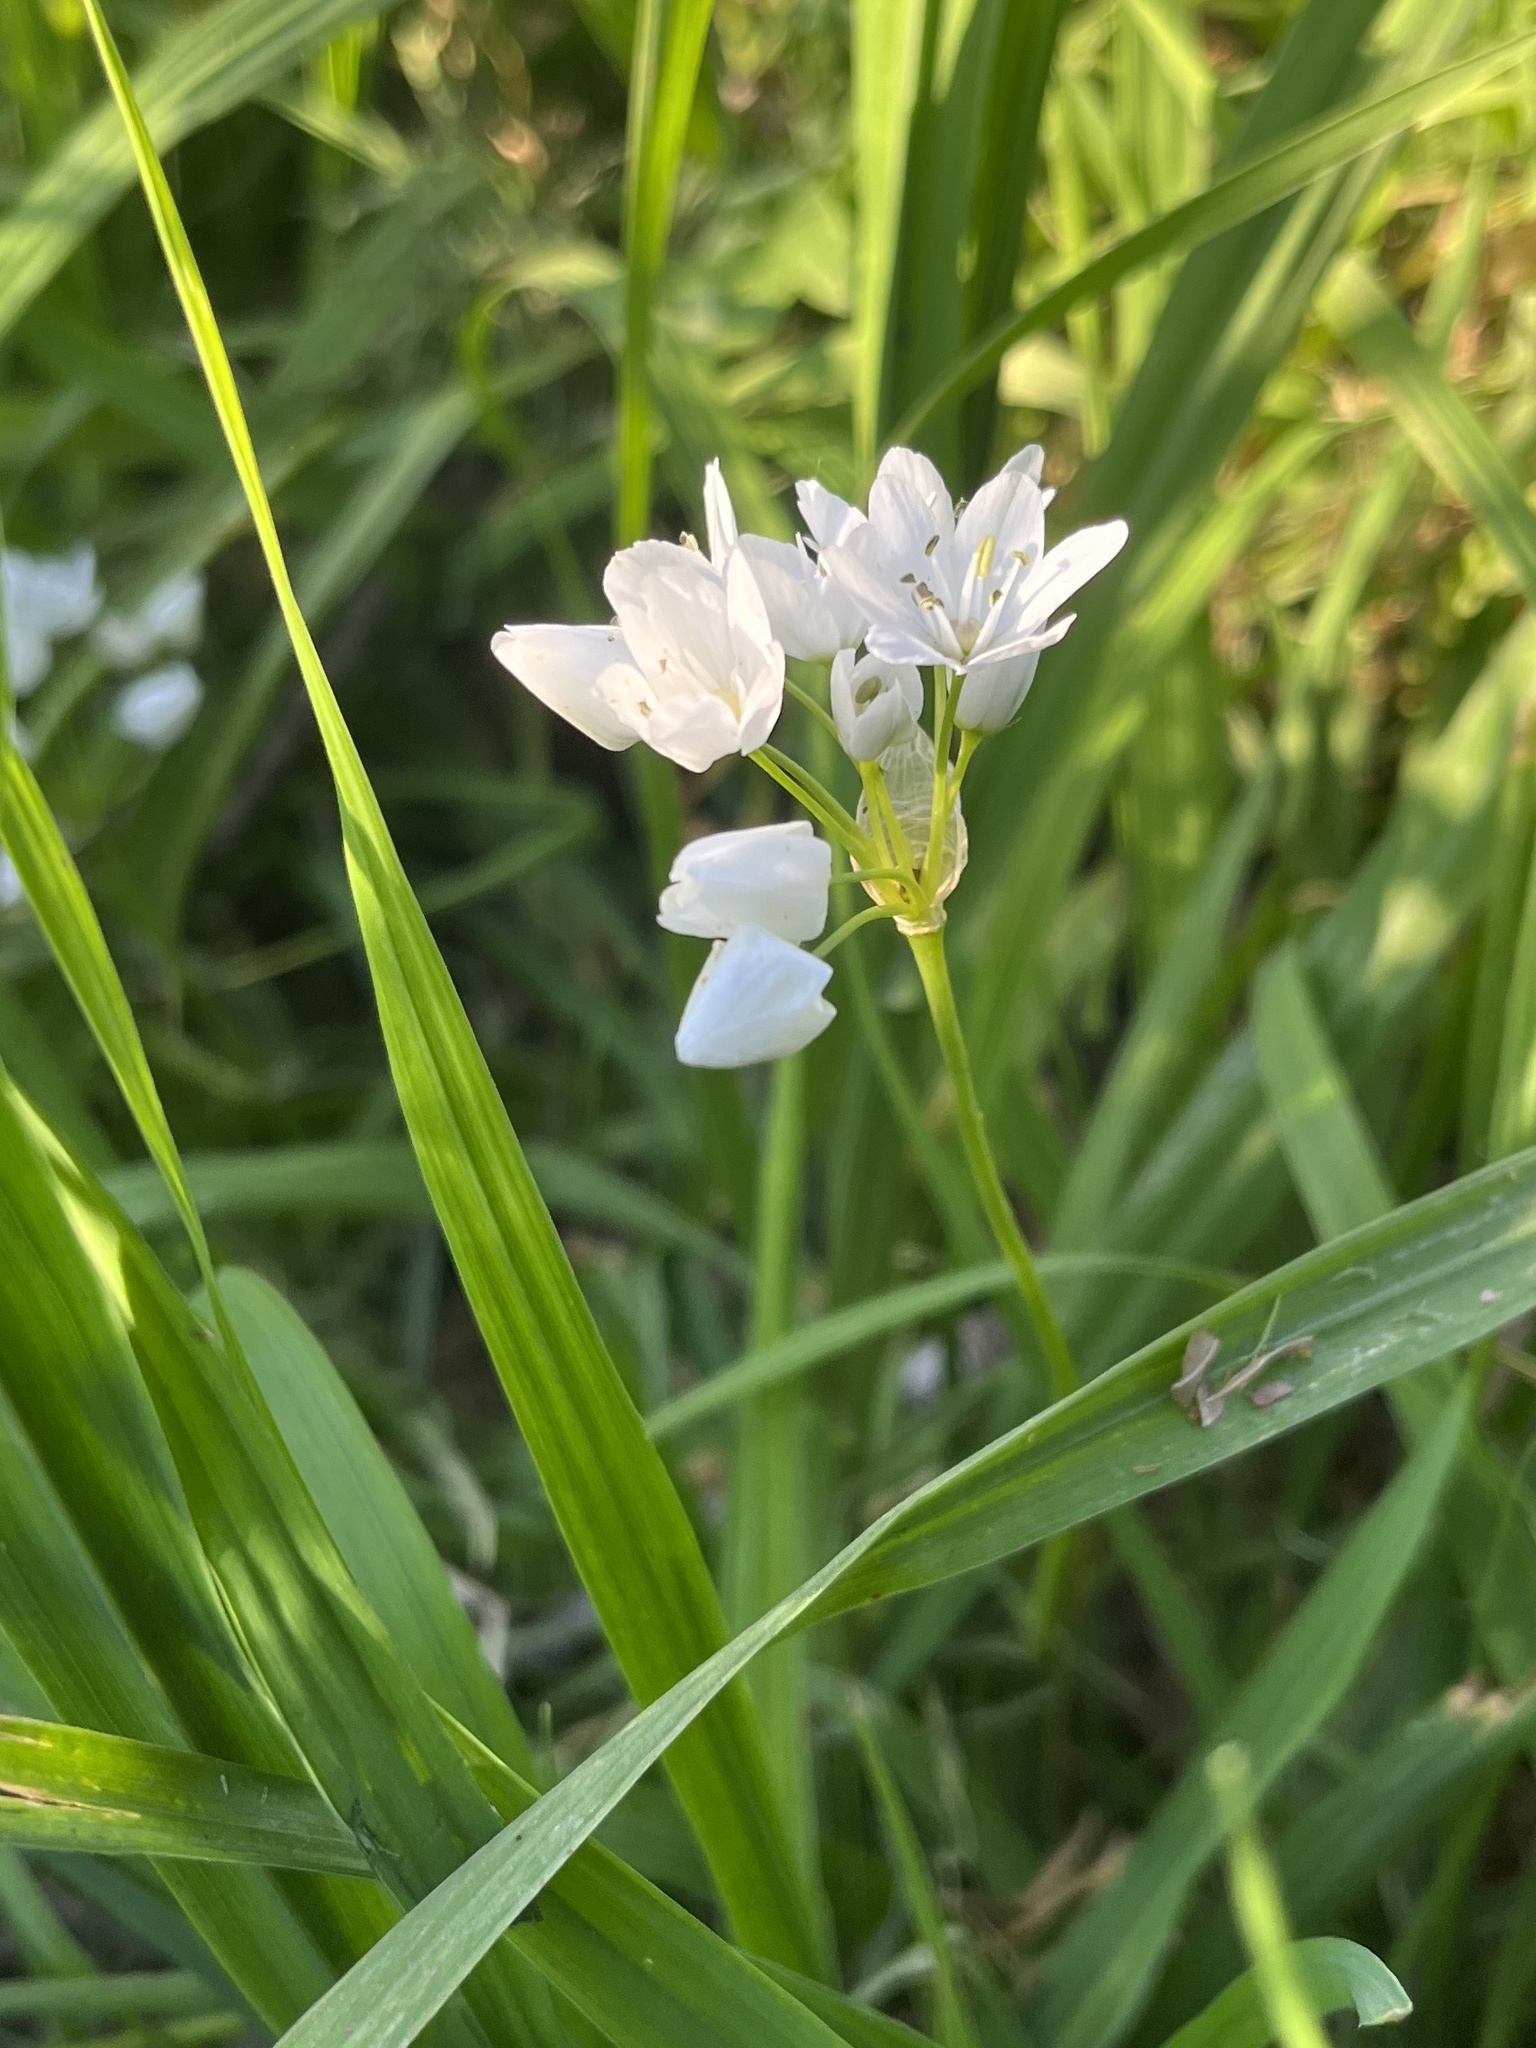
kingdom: Plantae
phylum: Tracheophyta
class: Liliopsida
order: Asparagales
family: Amaryllidaceae
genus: Allium
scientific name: Allium neapolitanum
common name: Neapolitan garlic
